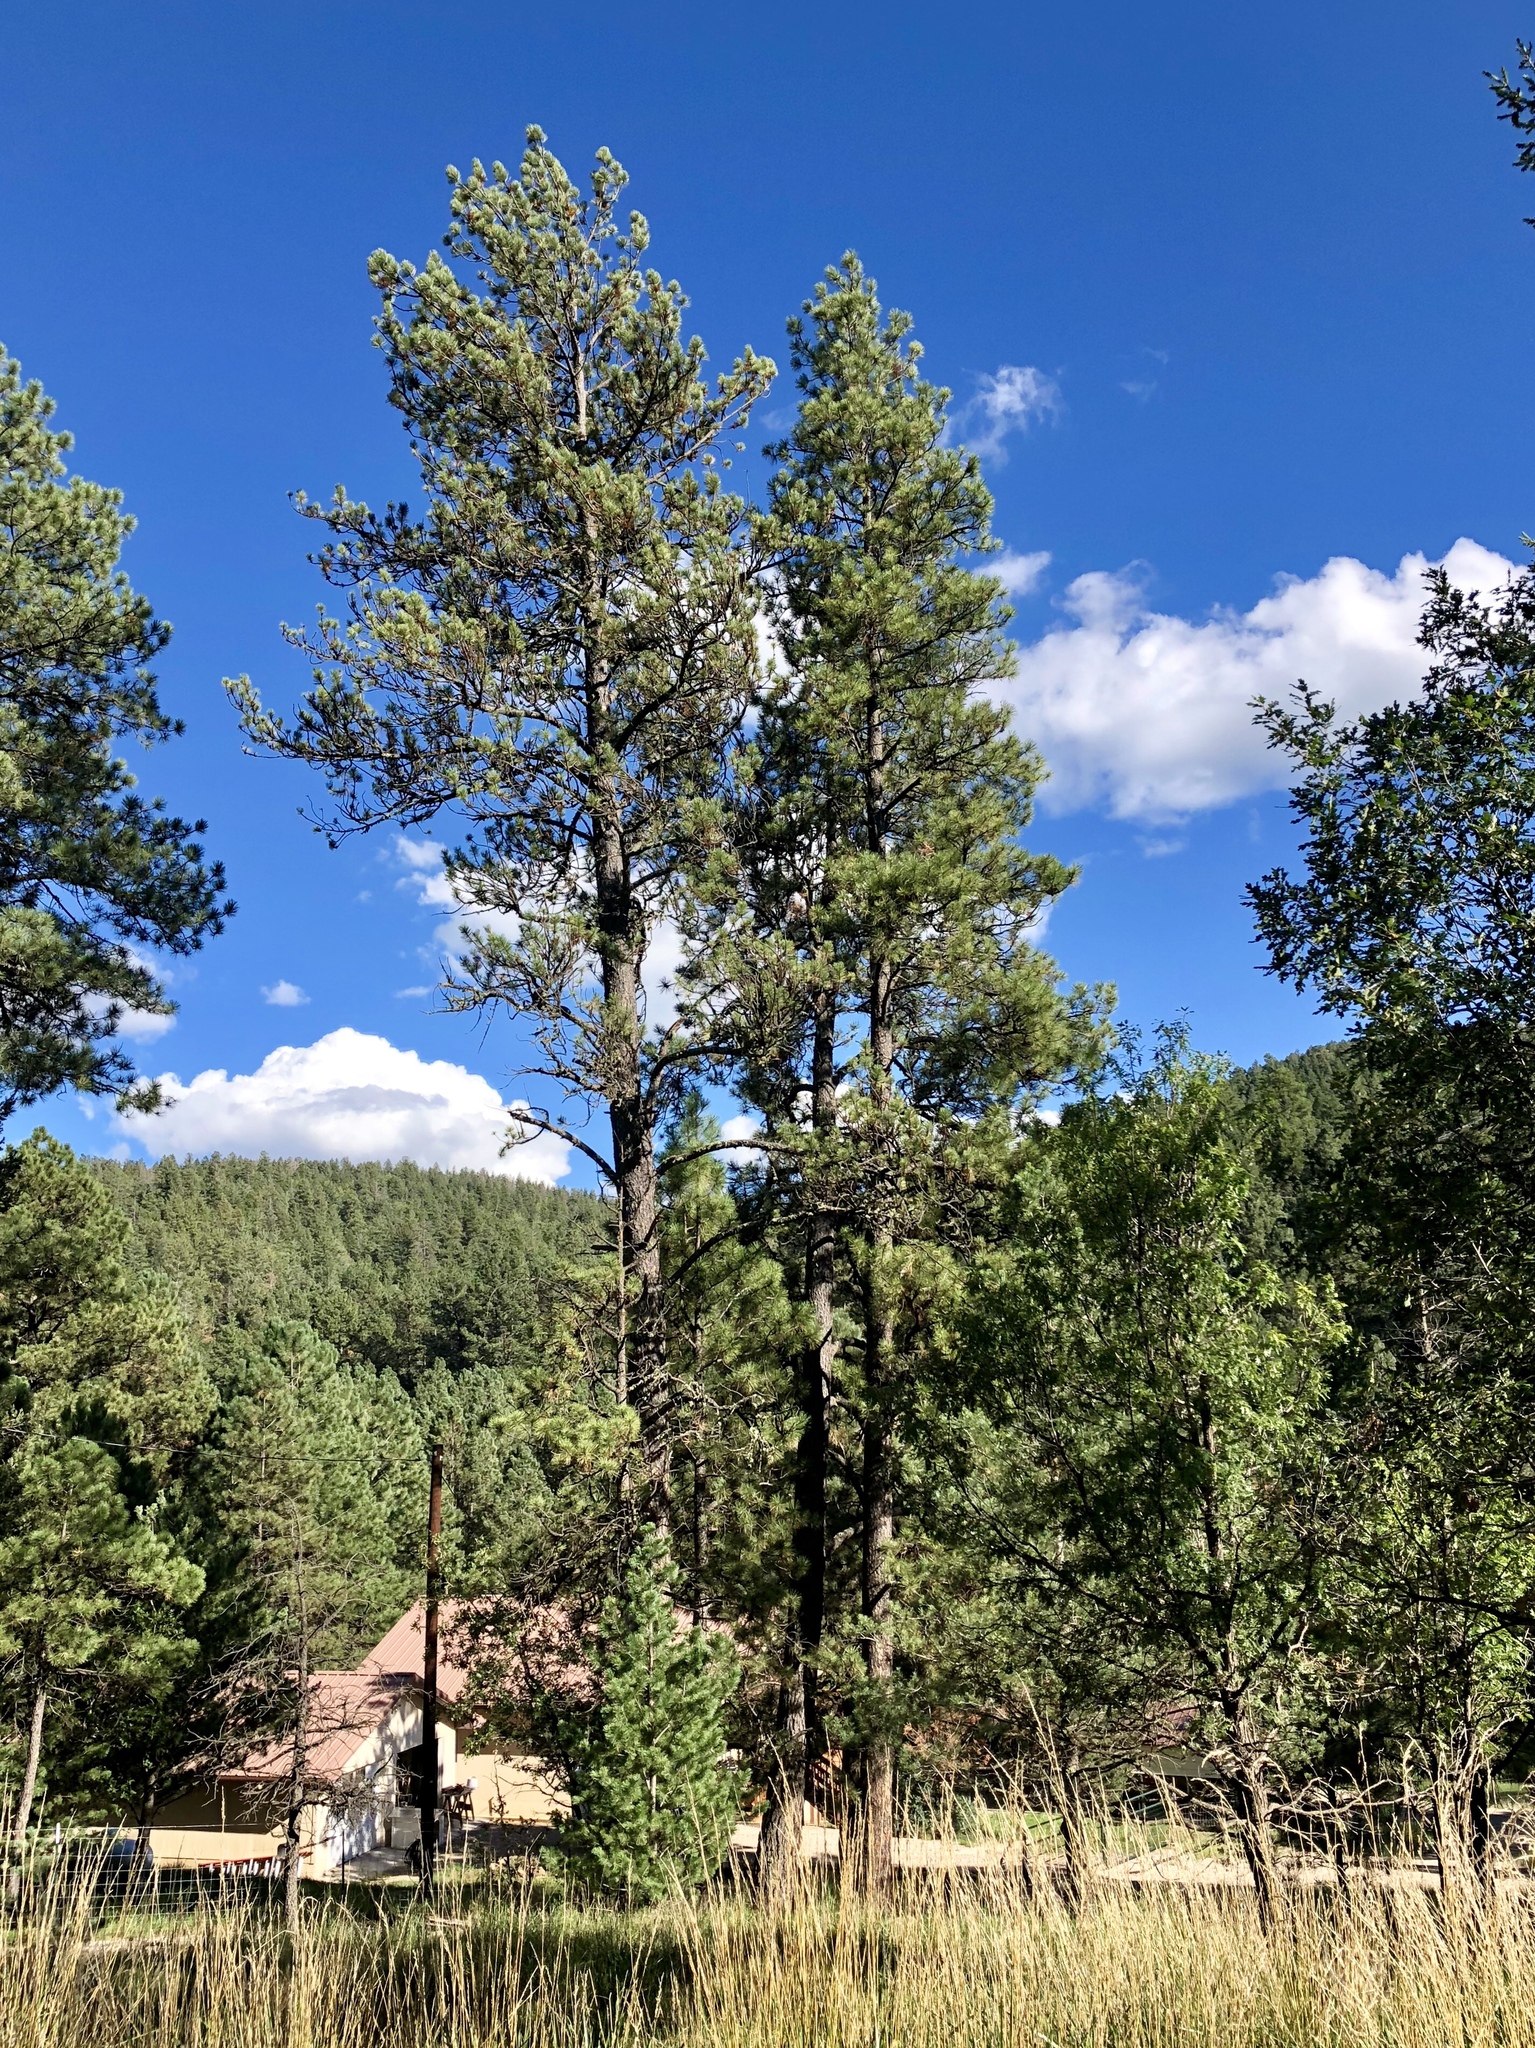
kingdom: Plantae
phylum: Tracheophyta
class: Pinopsida
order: Pinales
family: Pinaceae
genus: Pinus
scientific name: Pinus ponderosa
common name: Western yellow-pine
